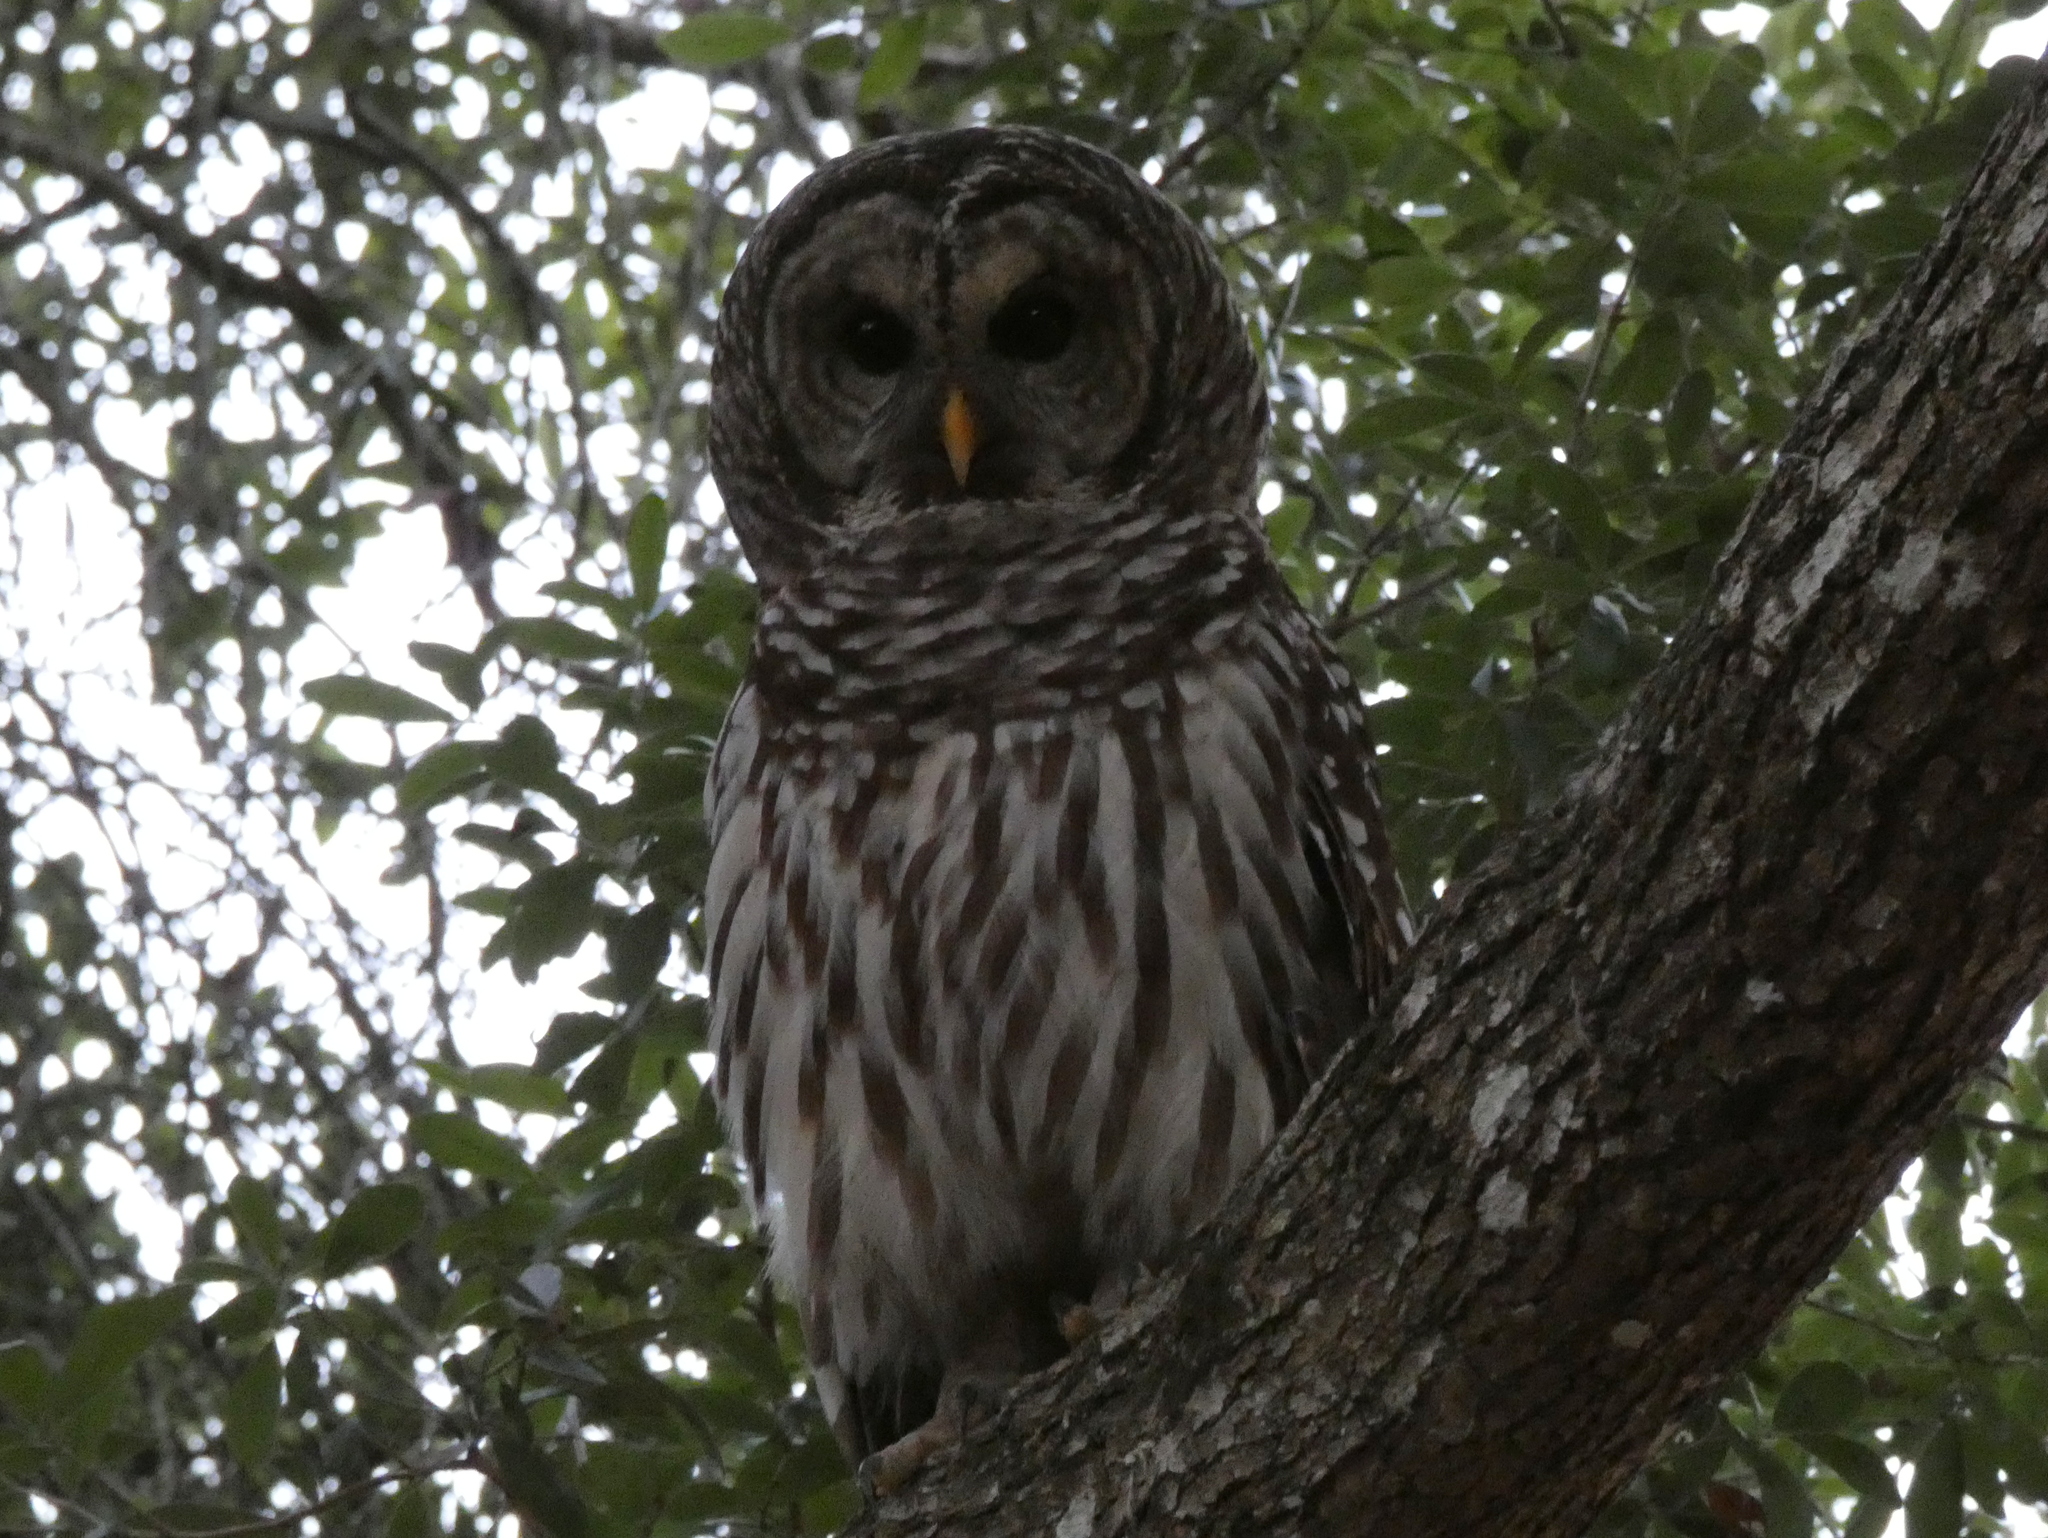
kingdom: Animalia
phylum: Chordata
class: Aves
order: Strigiformes
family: Strigidae
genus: Strix
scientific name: Strix varia
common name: Barred owl
